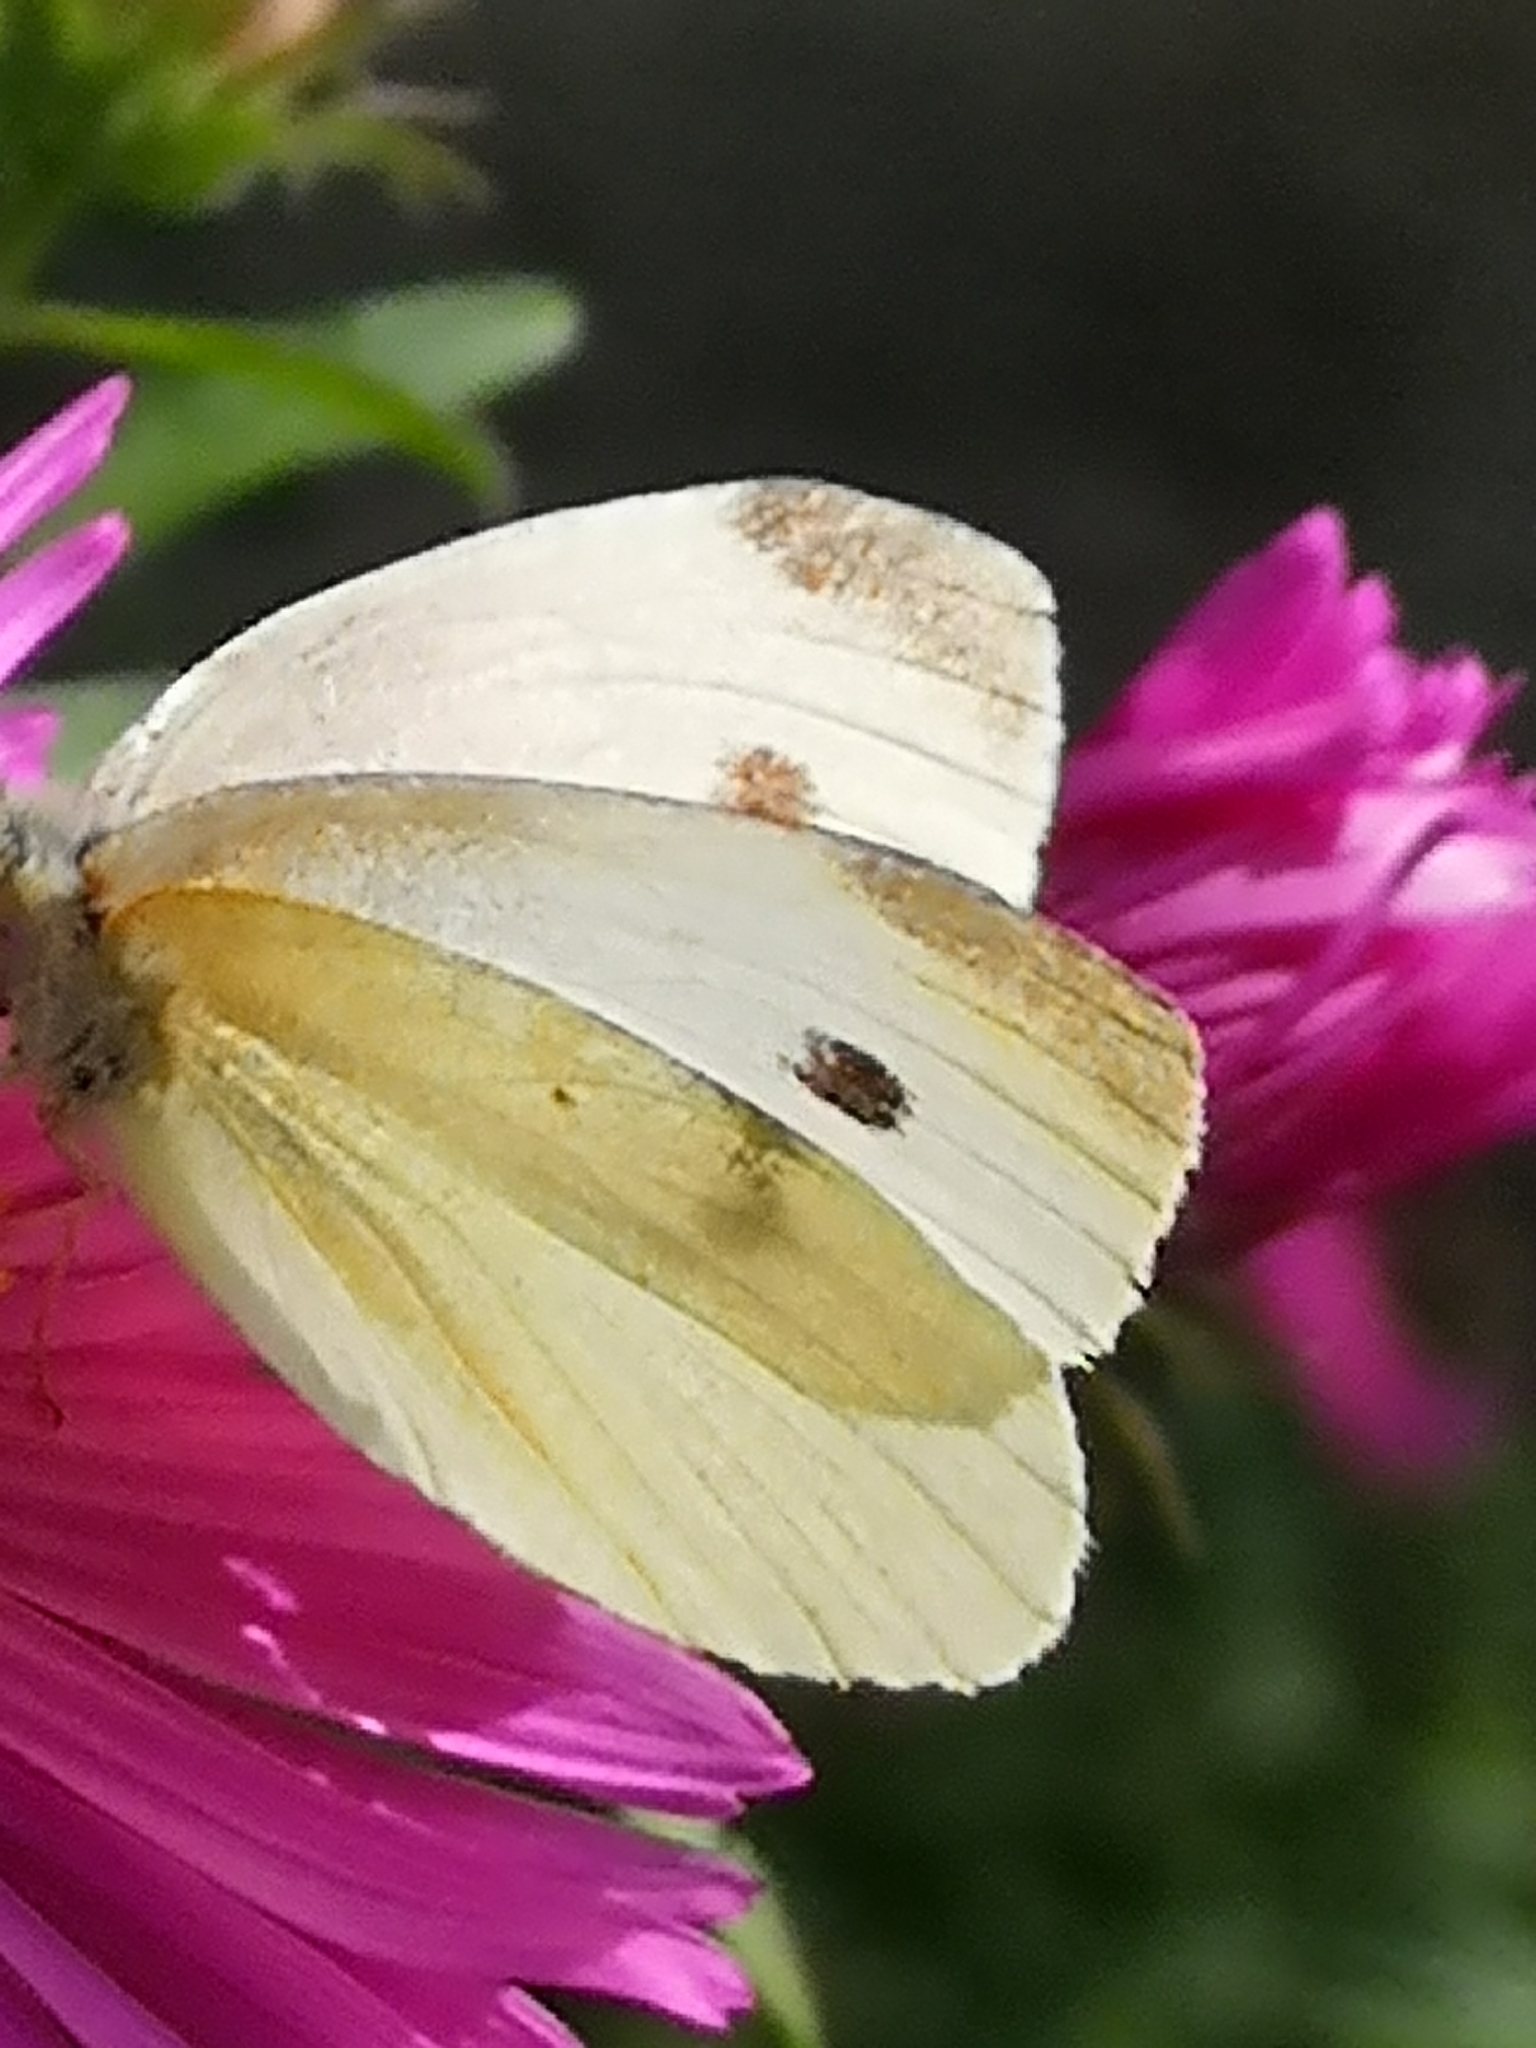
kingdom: Animalia
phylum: Arthropoda
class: Insecta
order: Lepidoptera
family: Pieridae
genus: Pieris
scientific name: Pieris rapae
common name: Small white
